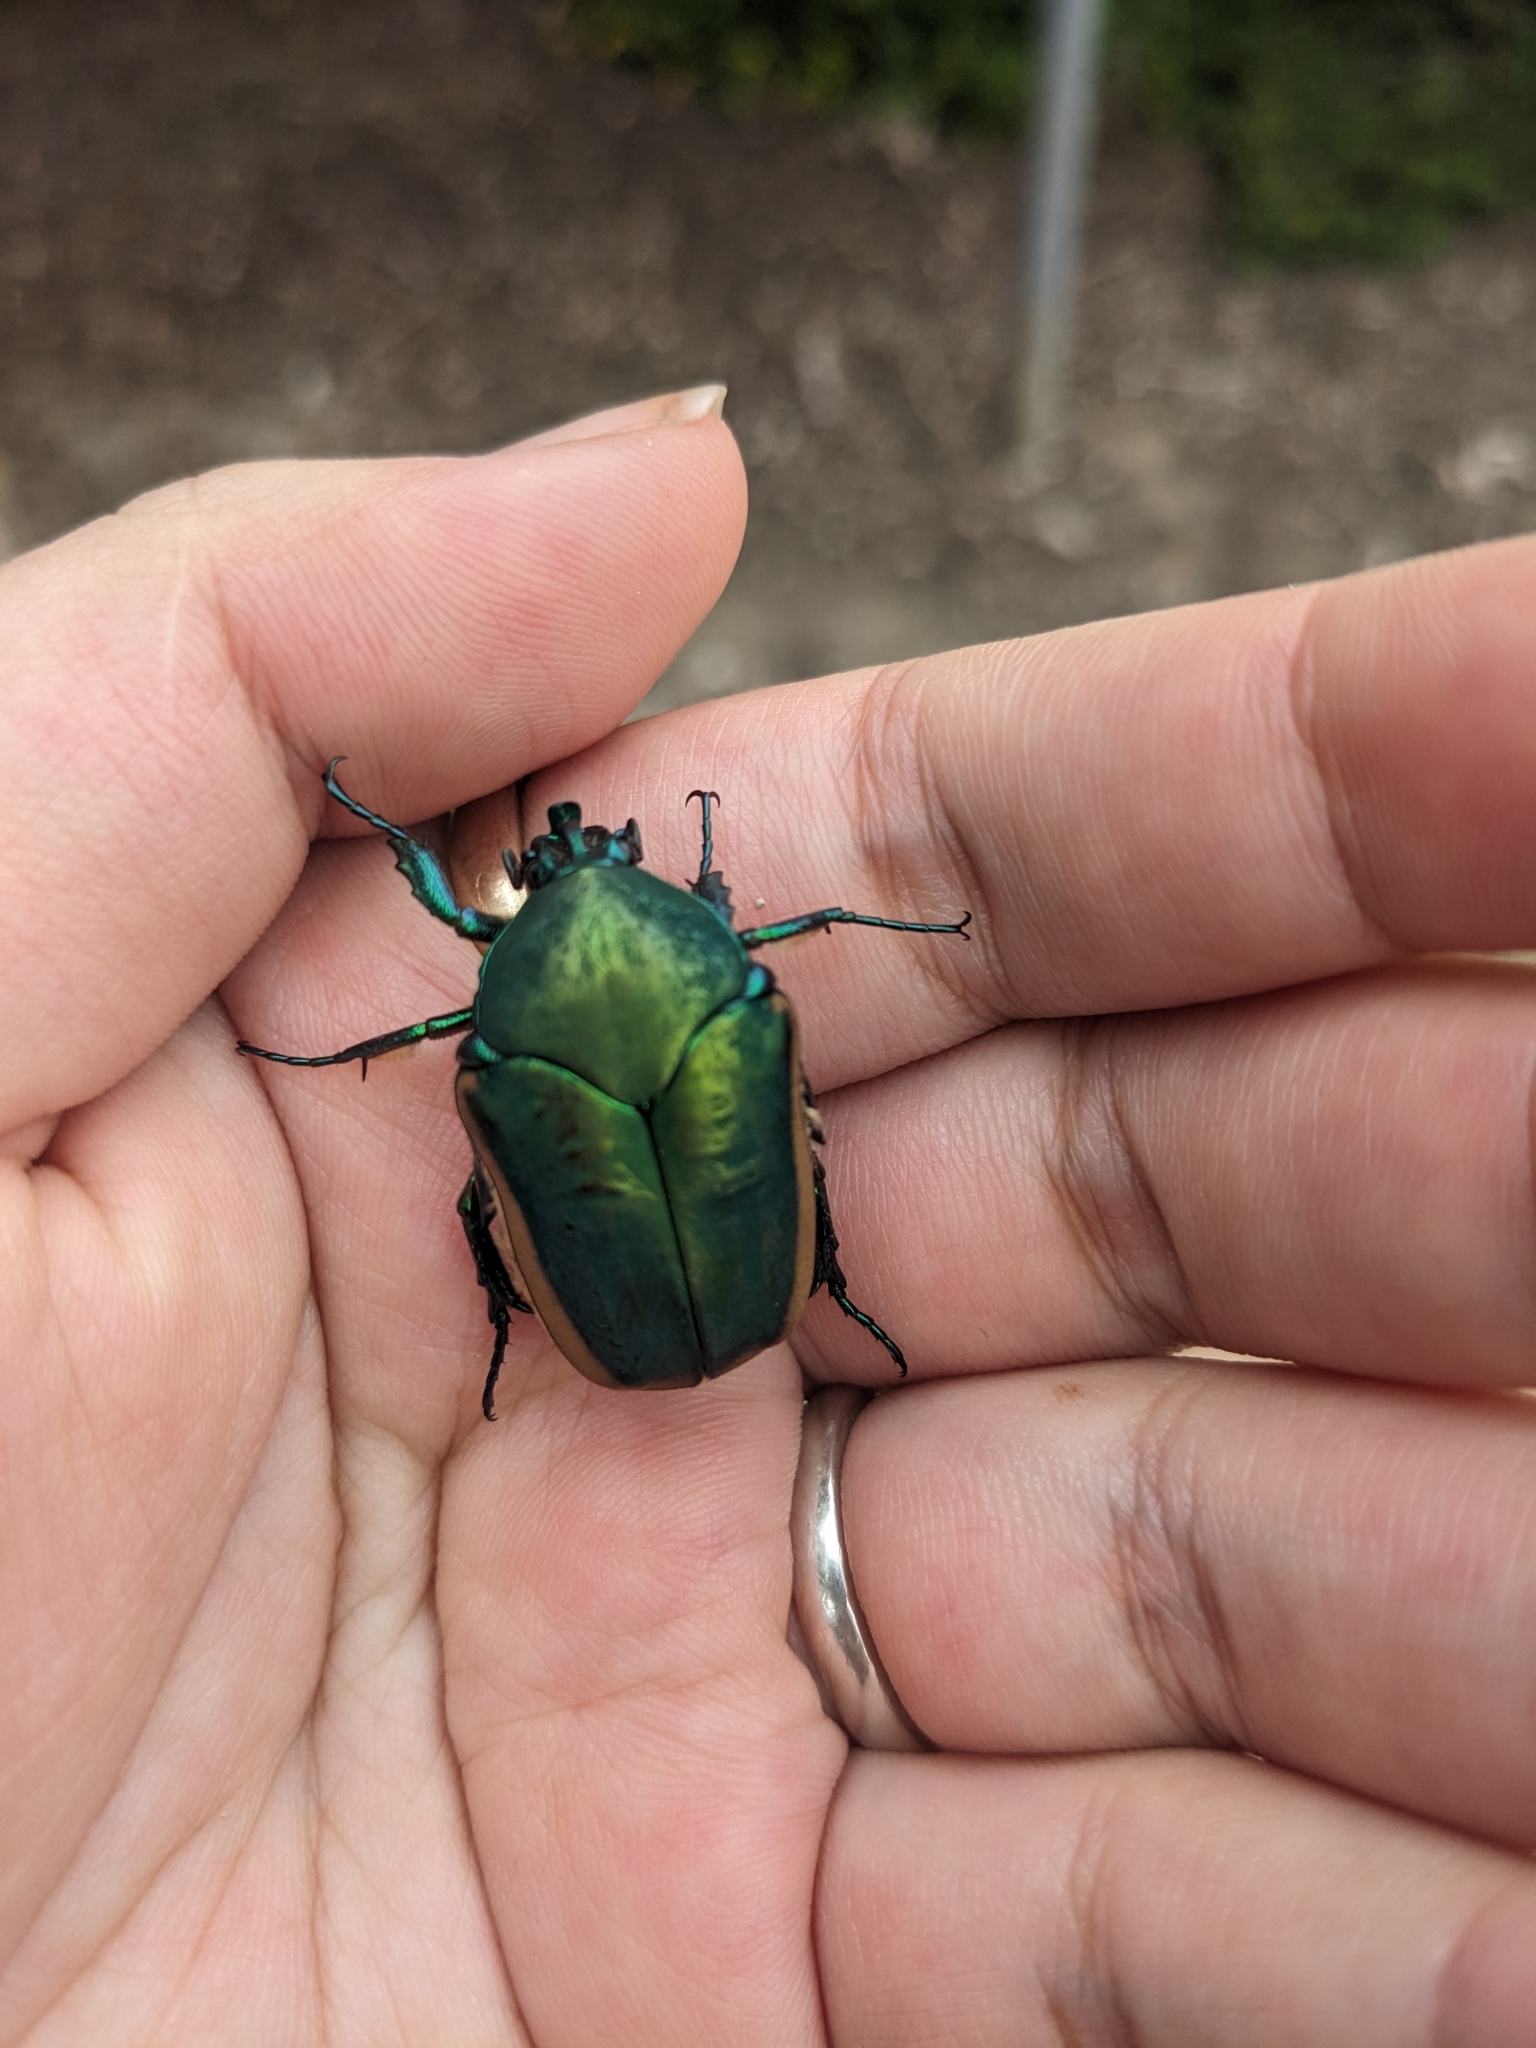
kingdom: Animalia
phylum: Arthropoda
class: Insecta
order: Coleoptera
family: Scarabaeidae
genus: Cotinis
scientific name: Cotinis mutabilis
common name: Figeater beetle
